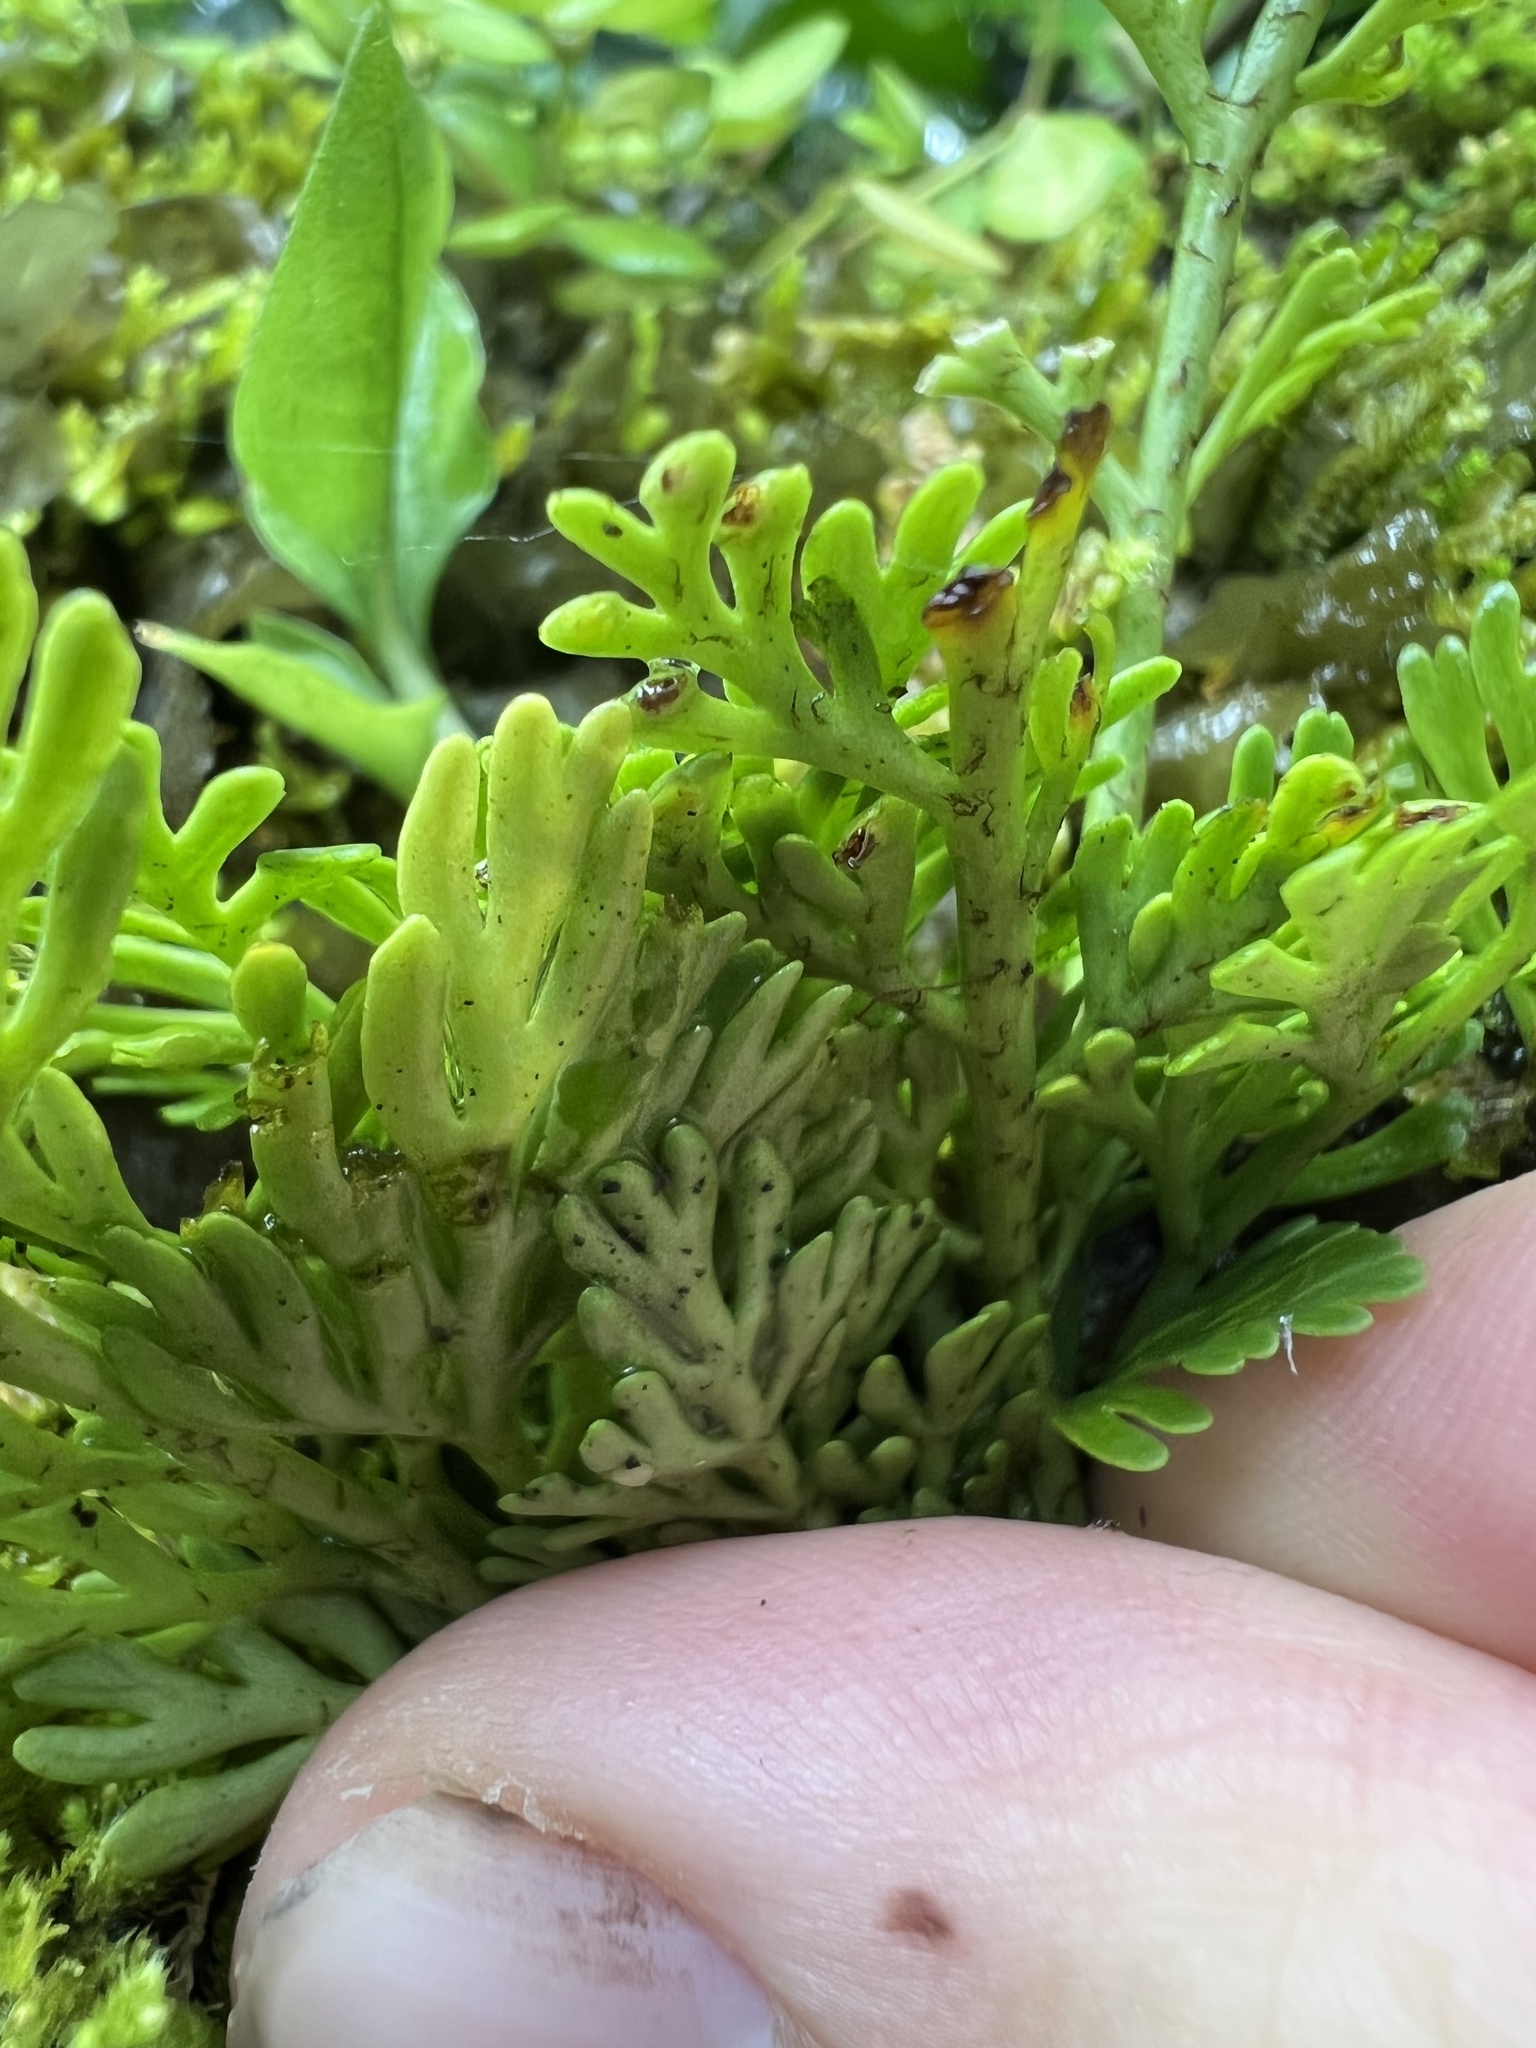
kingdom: Plantae
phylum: Tracheophyta
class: Polypodiopsida
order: Polypodiales
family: Aspleniaceae
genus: Asplenium
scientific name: Asplenium theciferum
